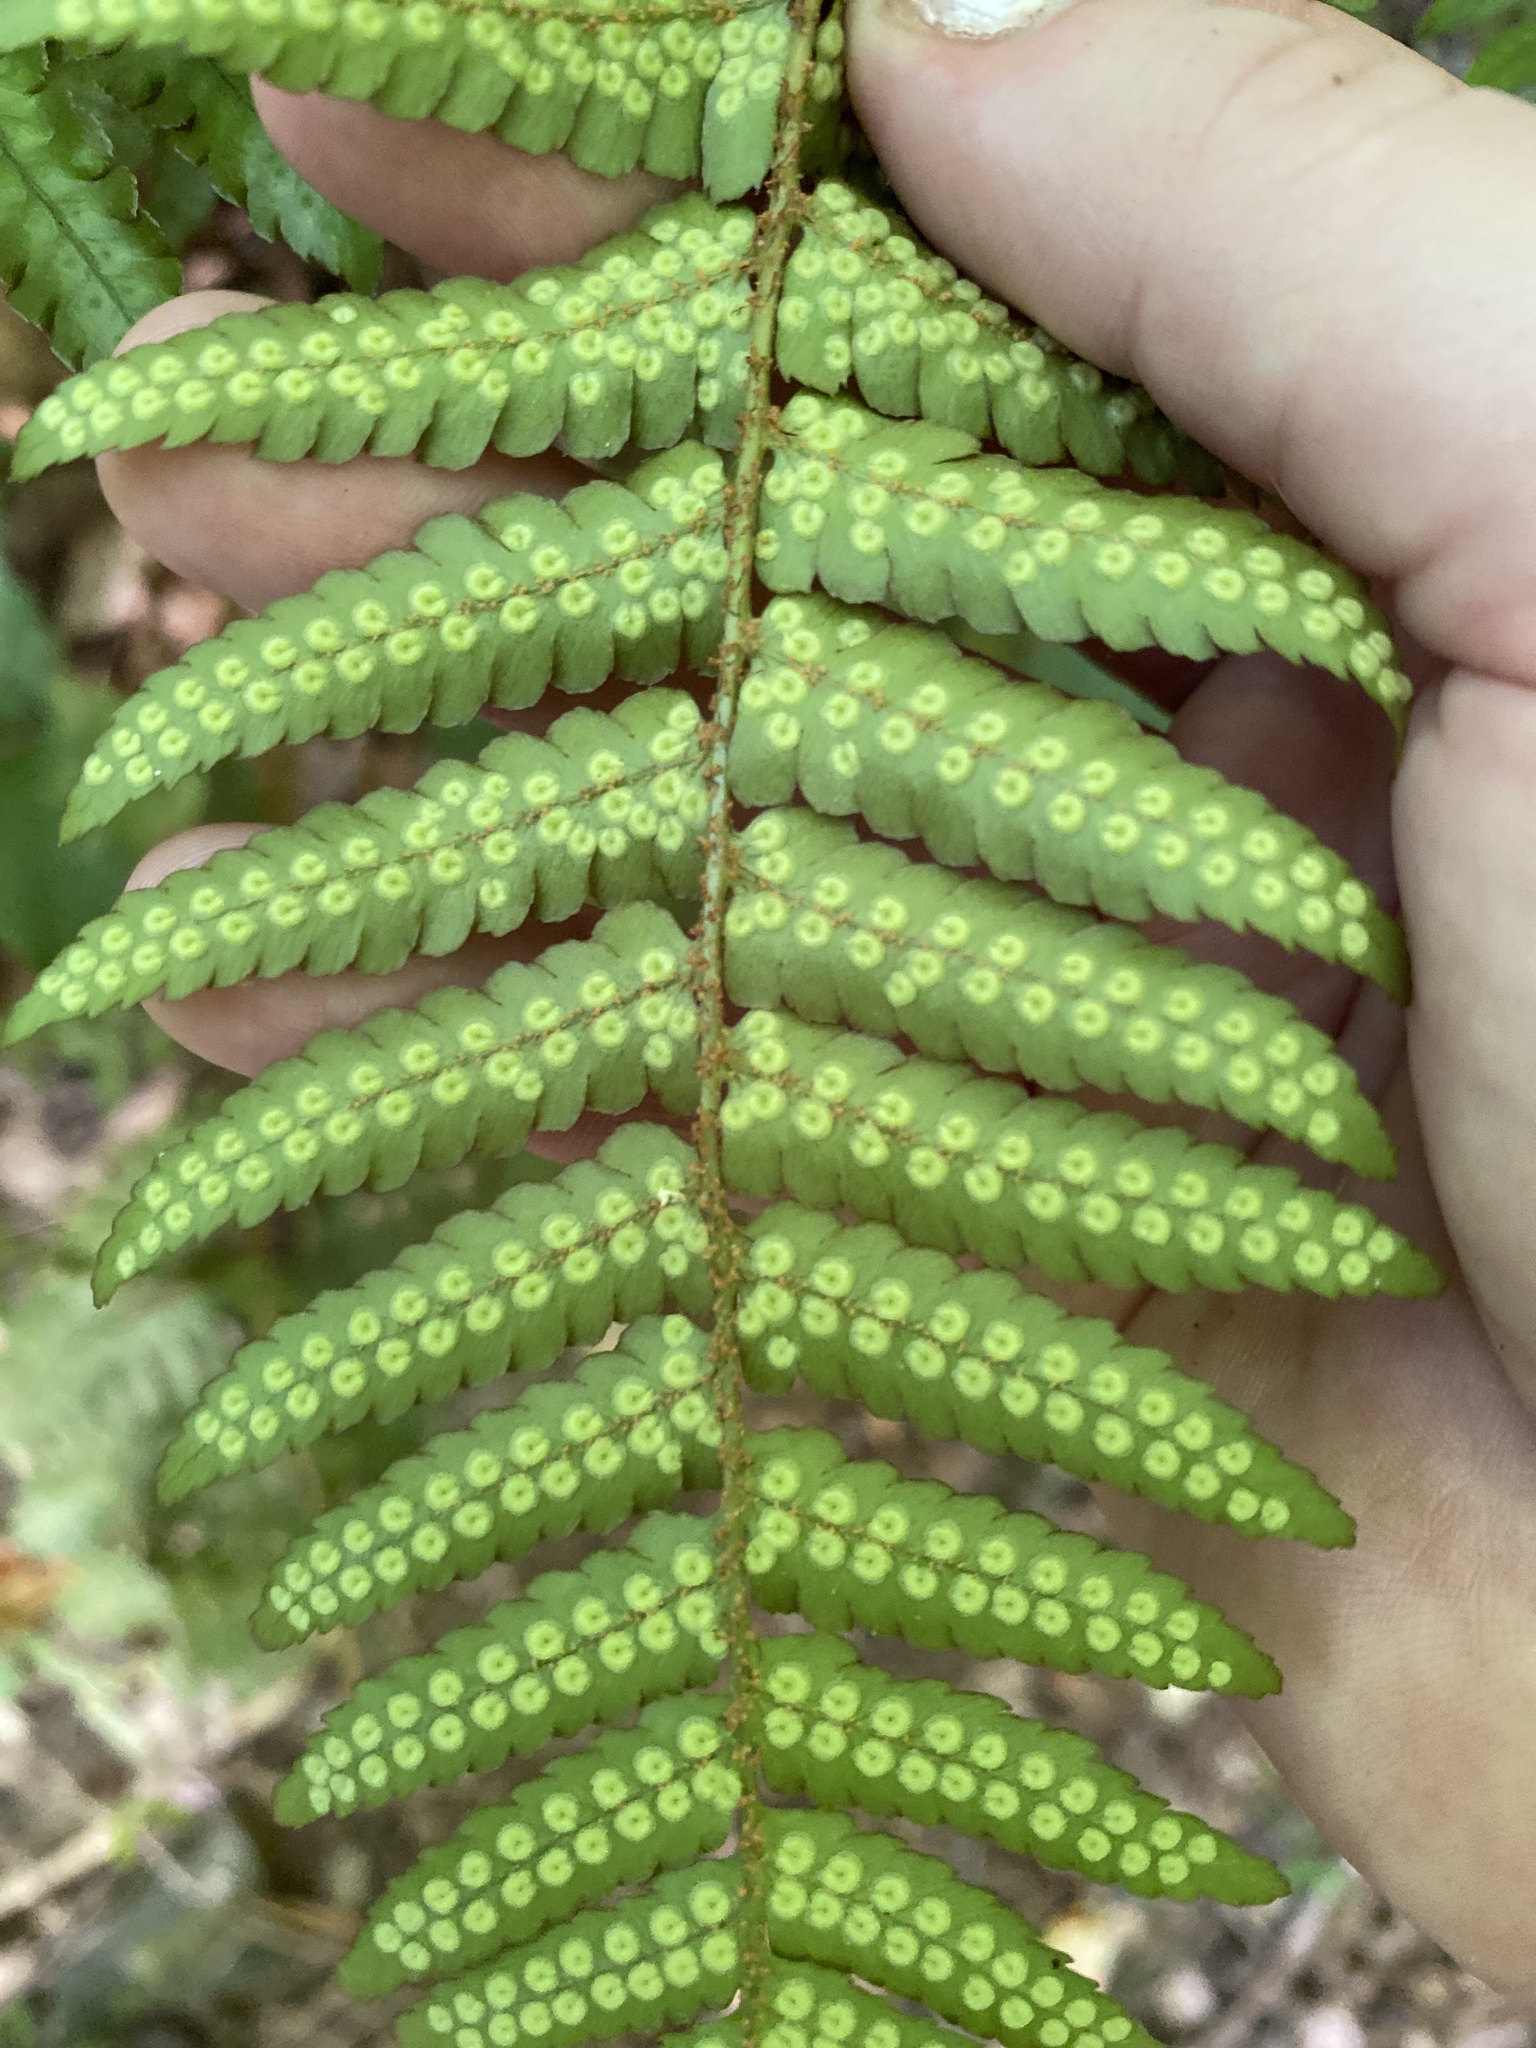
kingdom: Plantae
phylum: Tracheophyta
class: Polypodiopsida
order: Polypodiales
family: Dryopteridaceae
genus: Dryopteris
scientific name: Dryopteris erythrosora
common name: Autumn fern
